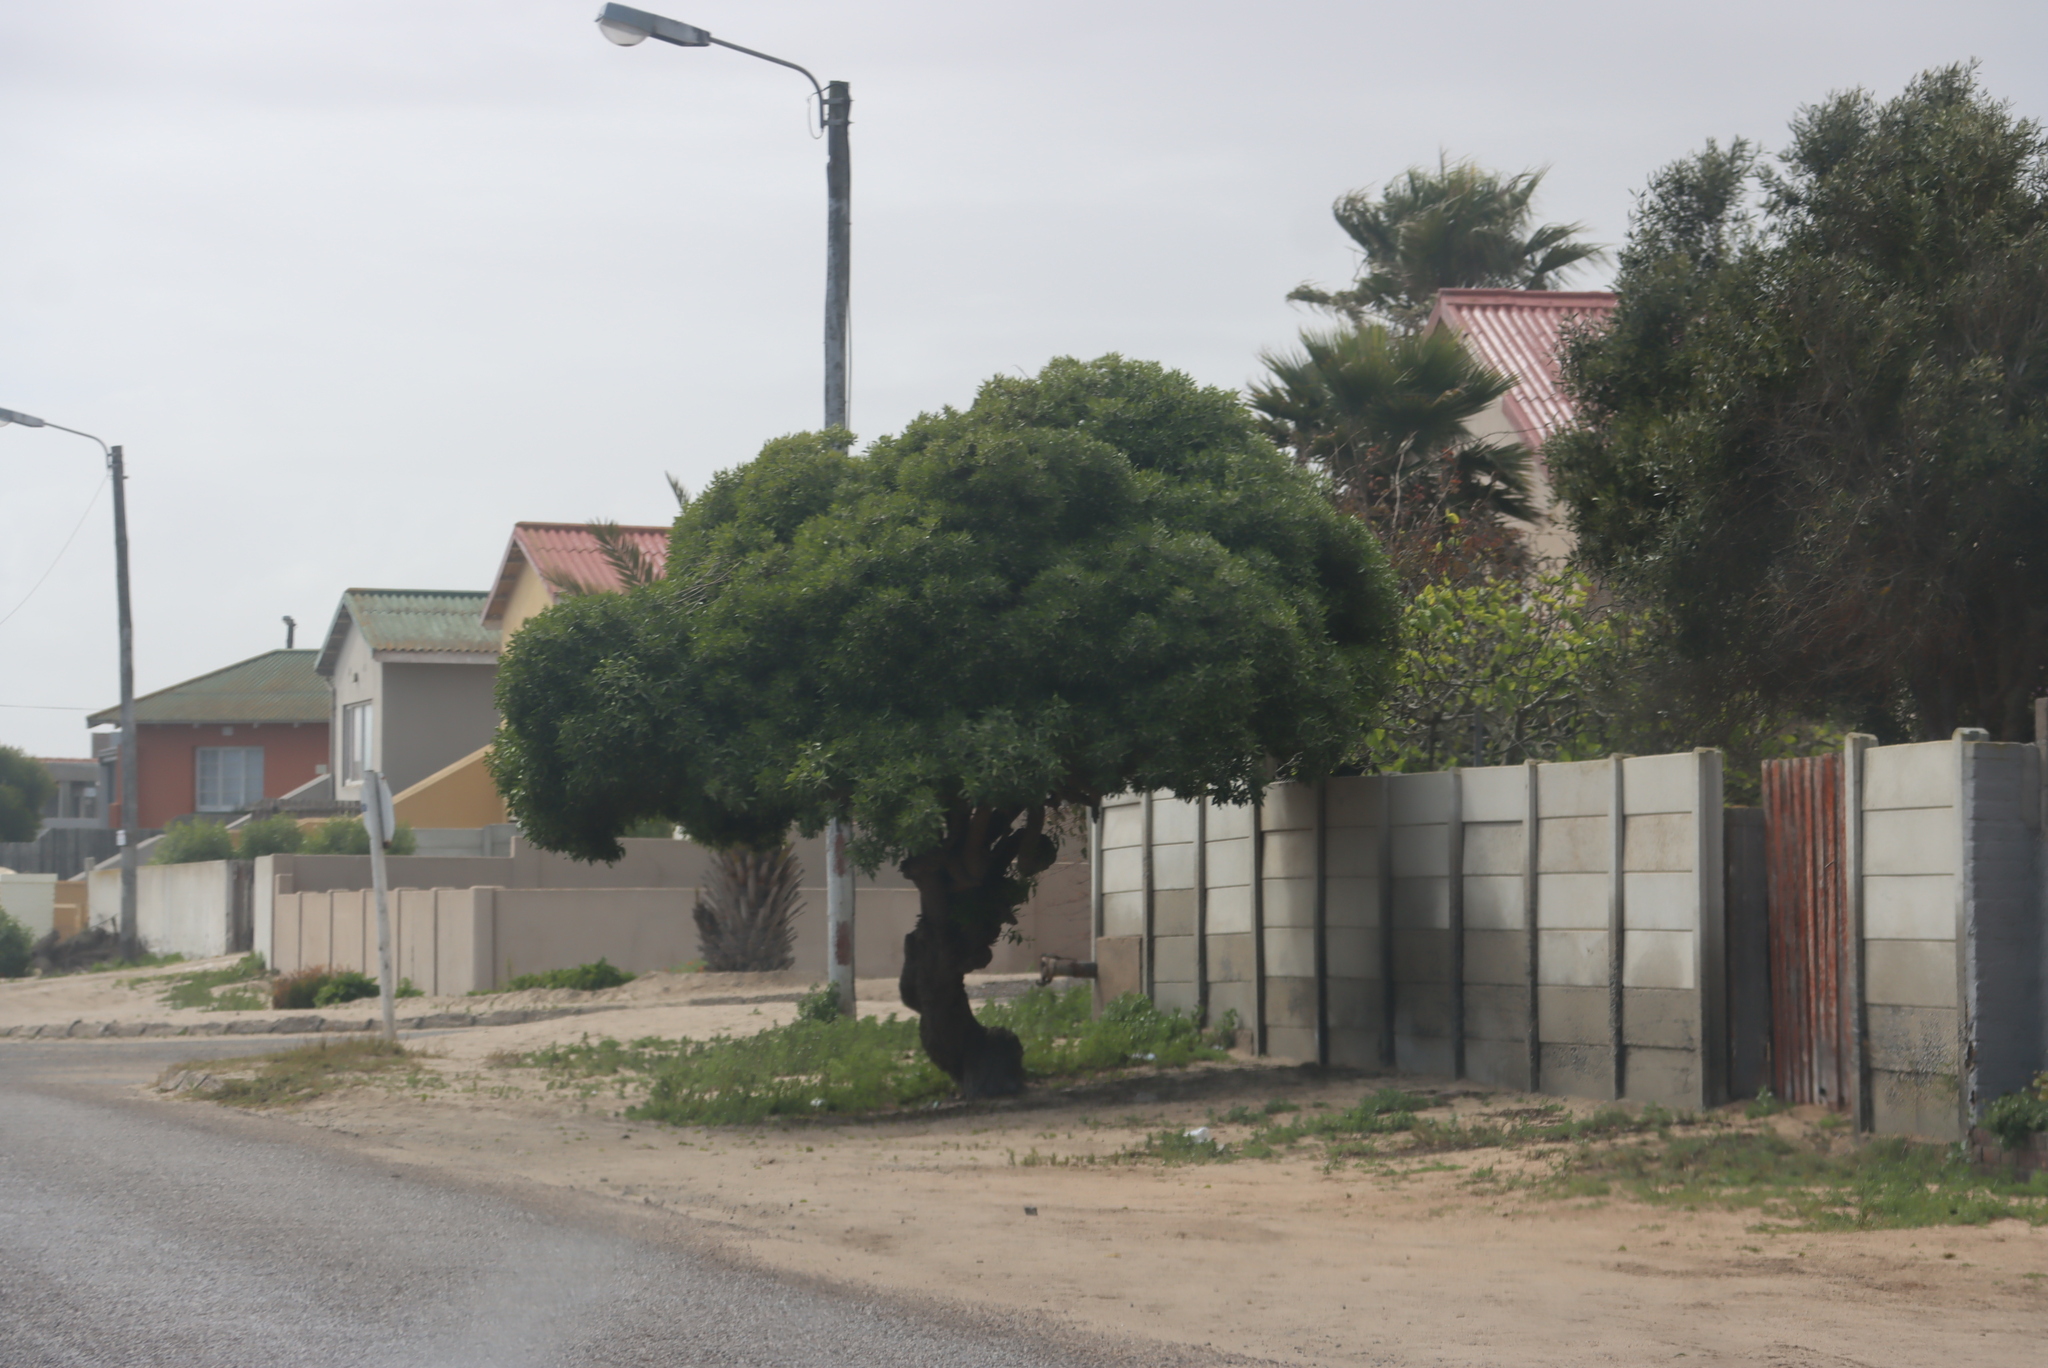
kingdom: Plantae
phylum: Tracheophyta
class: Magnoliopsida
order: Lamiales
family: Scrophulariaceae
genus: Myoporum
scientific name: Myoporum montanum
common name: Waterbush
